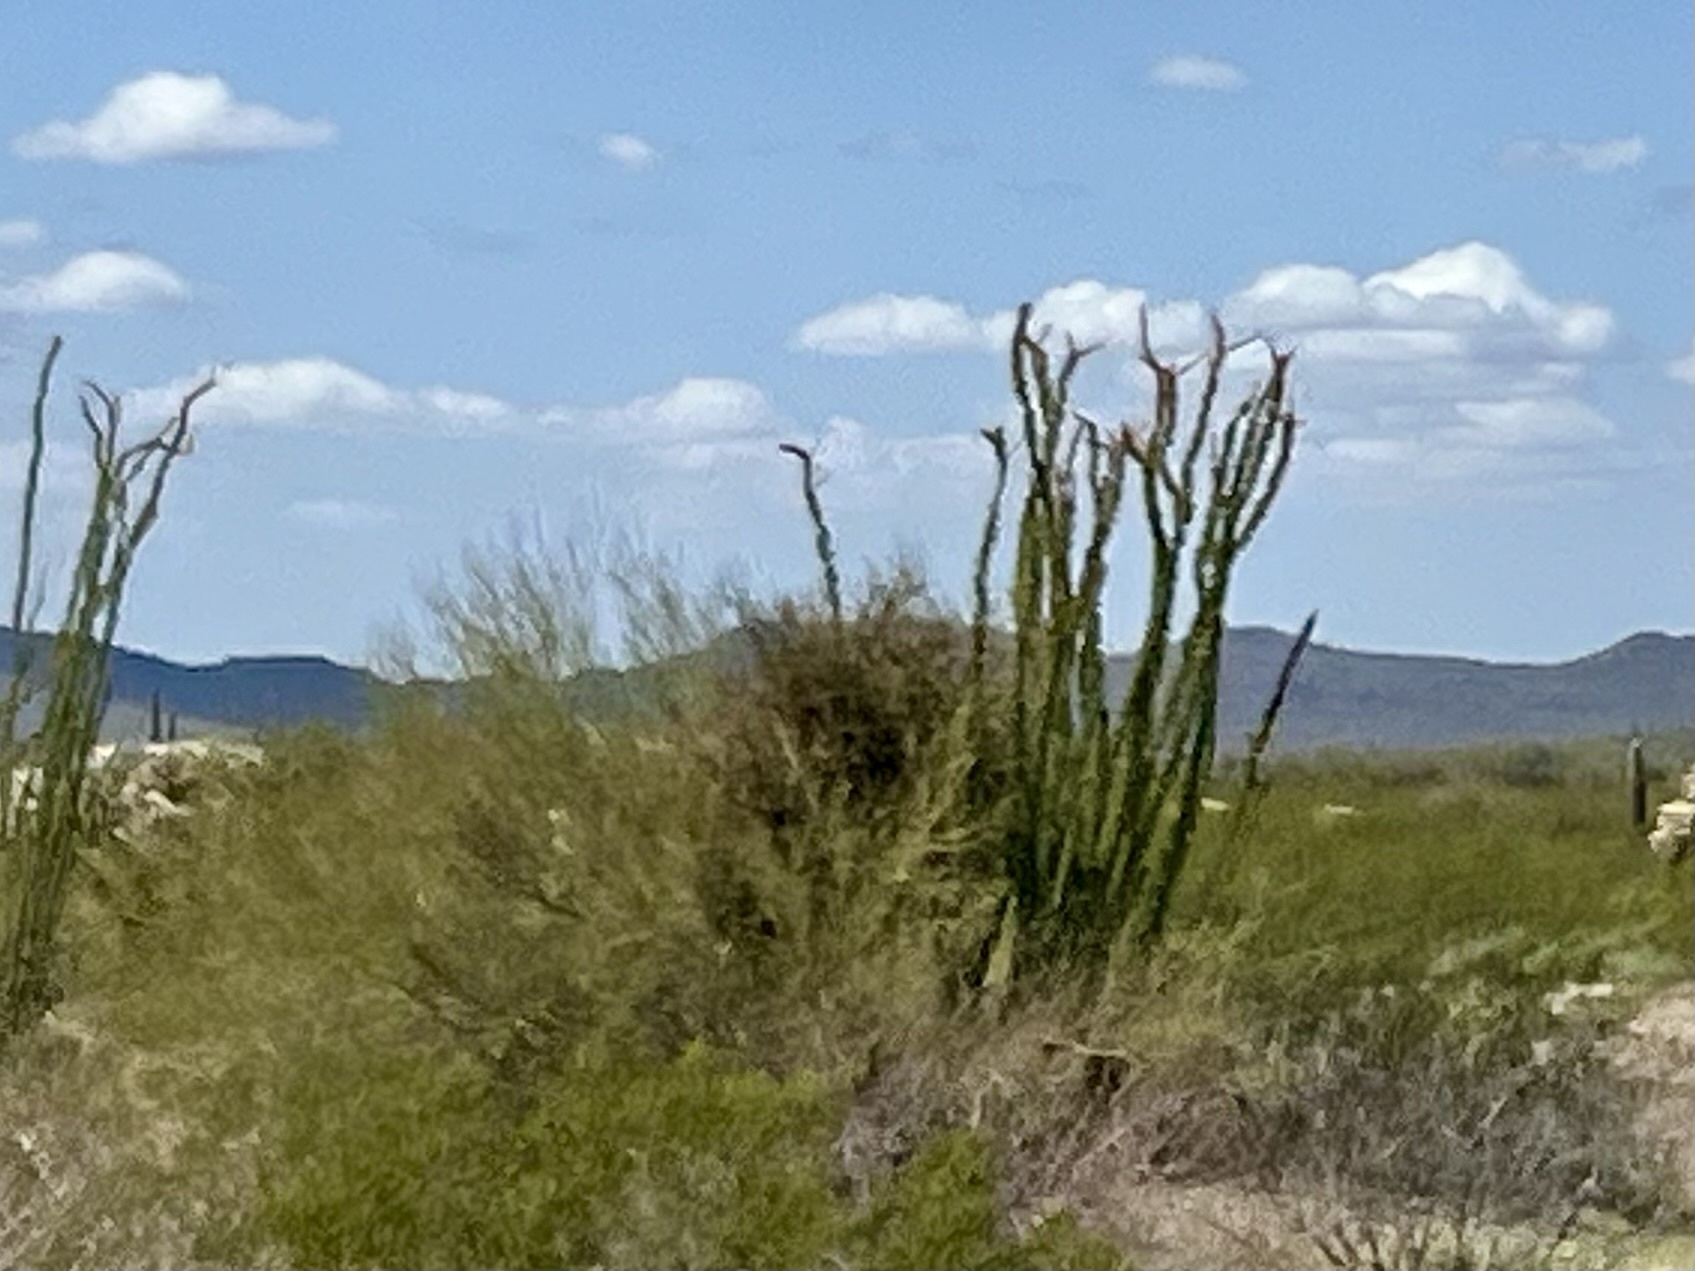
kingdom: Plantae
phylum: Tracheophyta
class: Magnoliopsida
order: Ericales
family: Fouquieriaceae
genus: Fouquieria
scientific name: Fouquieria splendens
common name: Vine-cactus
